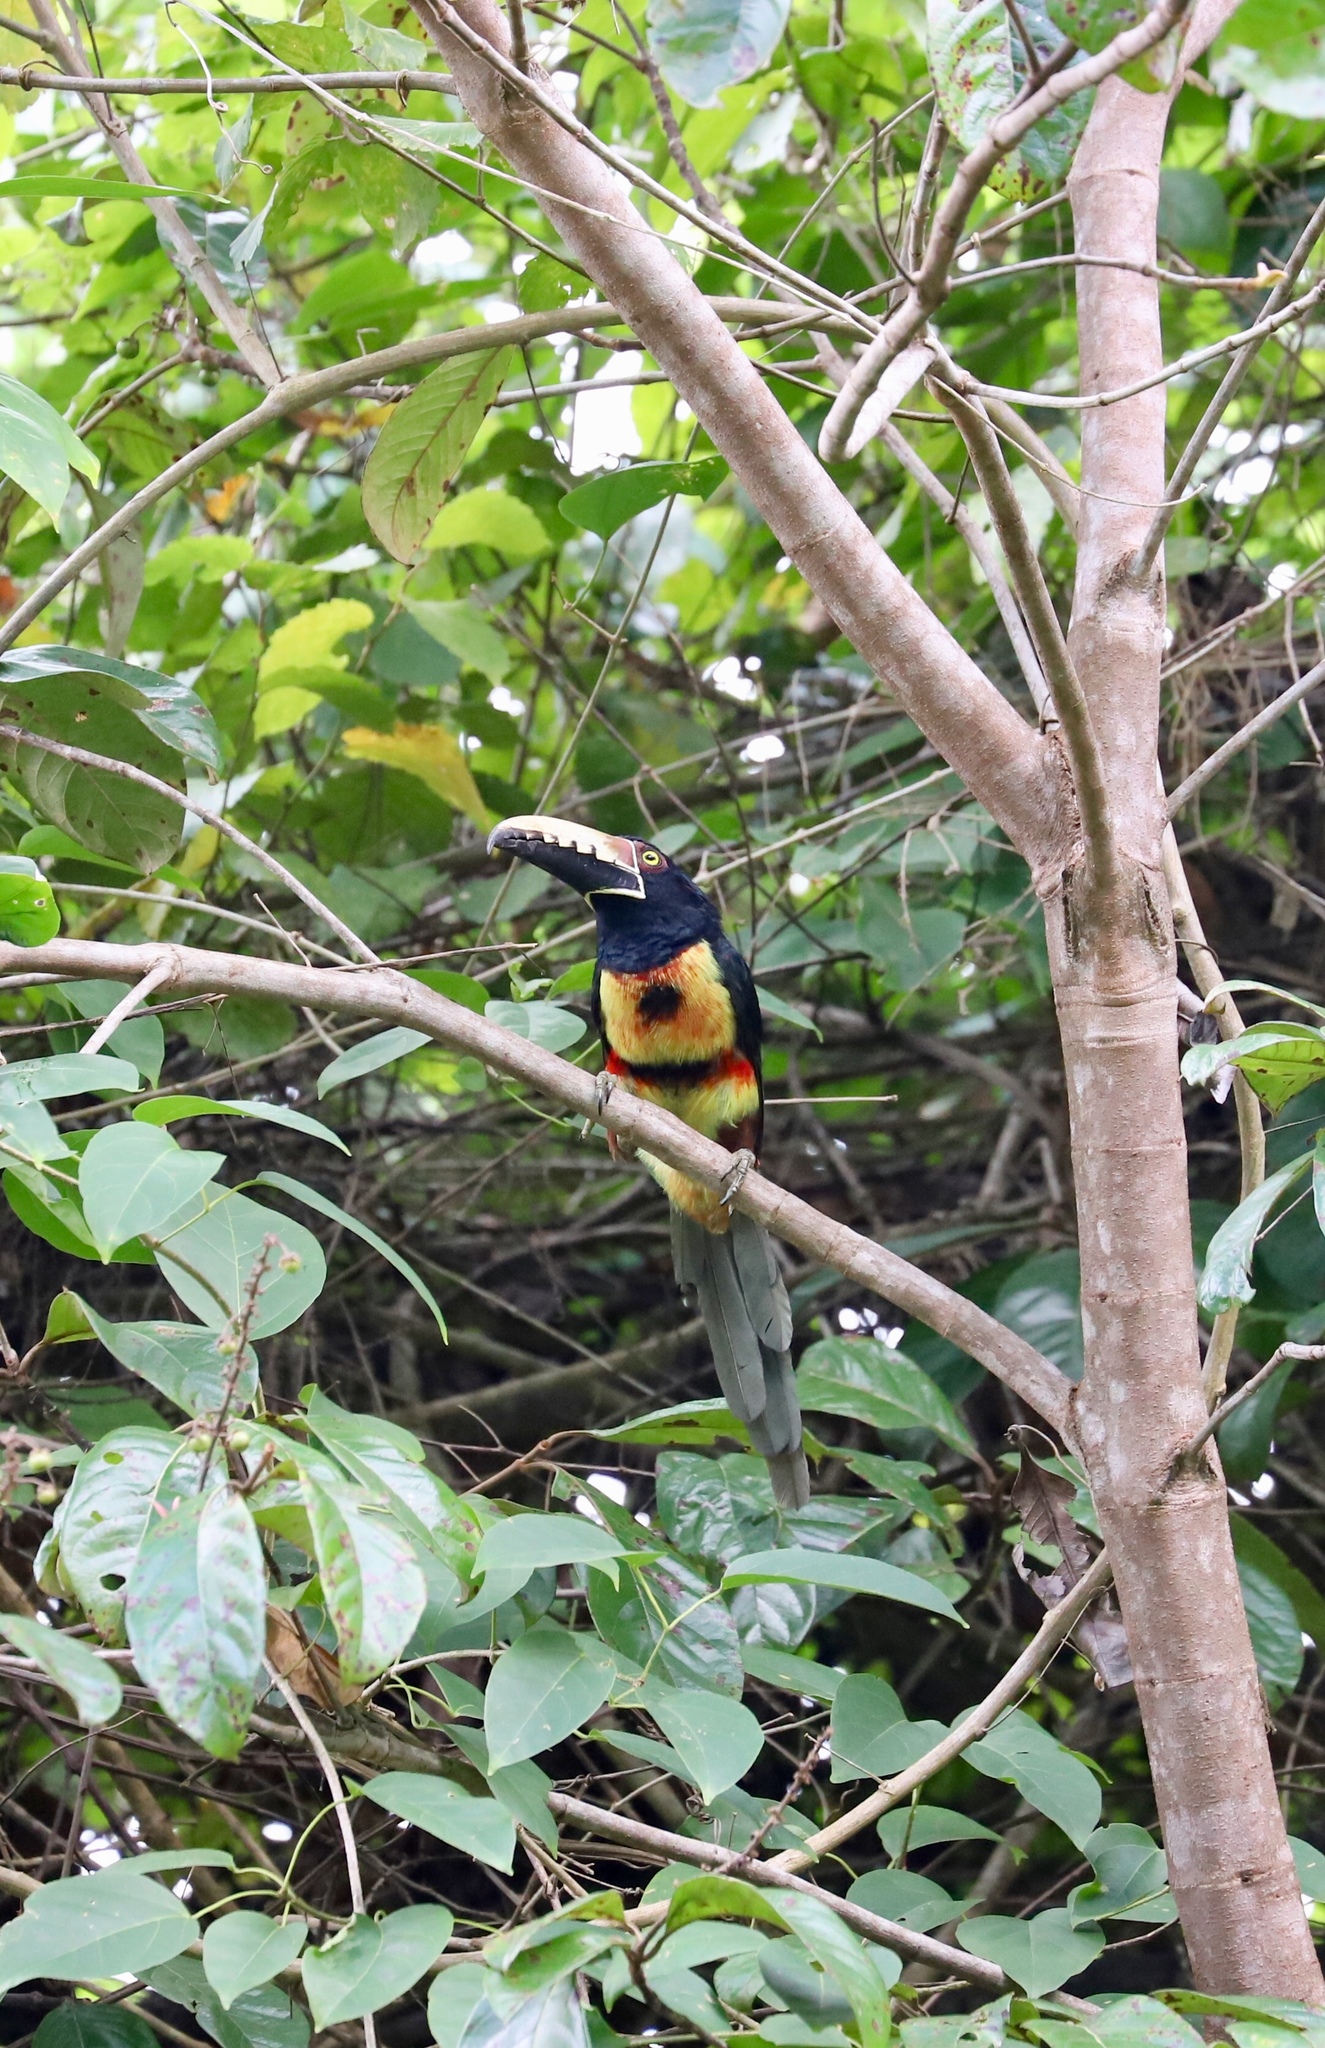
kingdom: Animalia
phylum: Chordata
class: Aves
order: Piciformes
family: Ramphastidae
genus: Pteroglossus
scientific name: Pteroglossus torquatus
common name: Collared aracari
